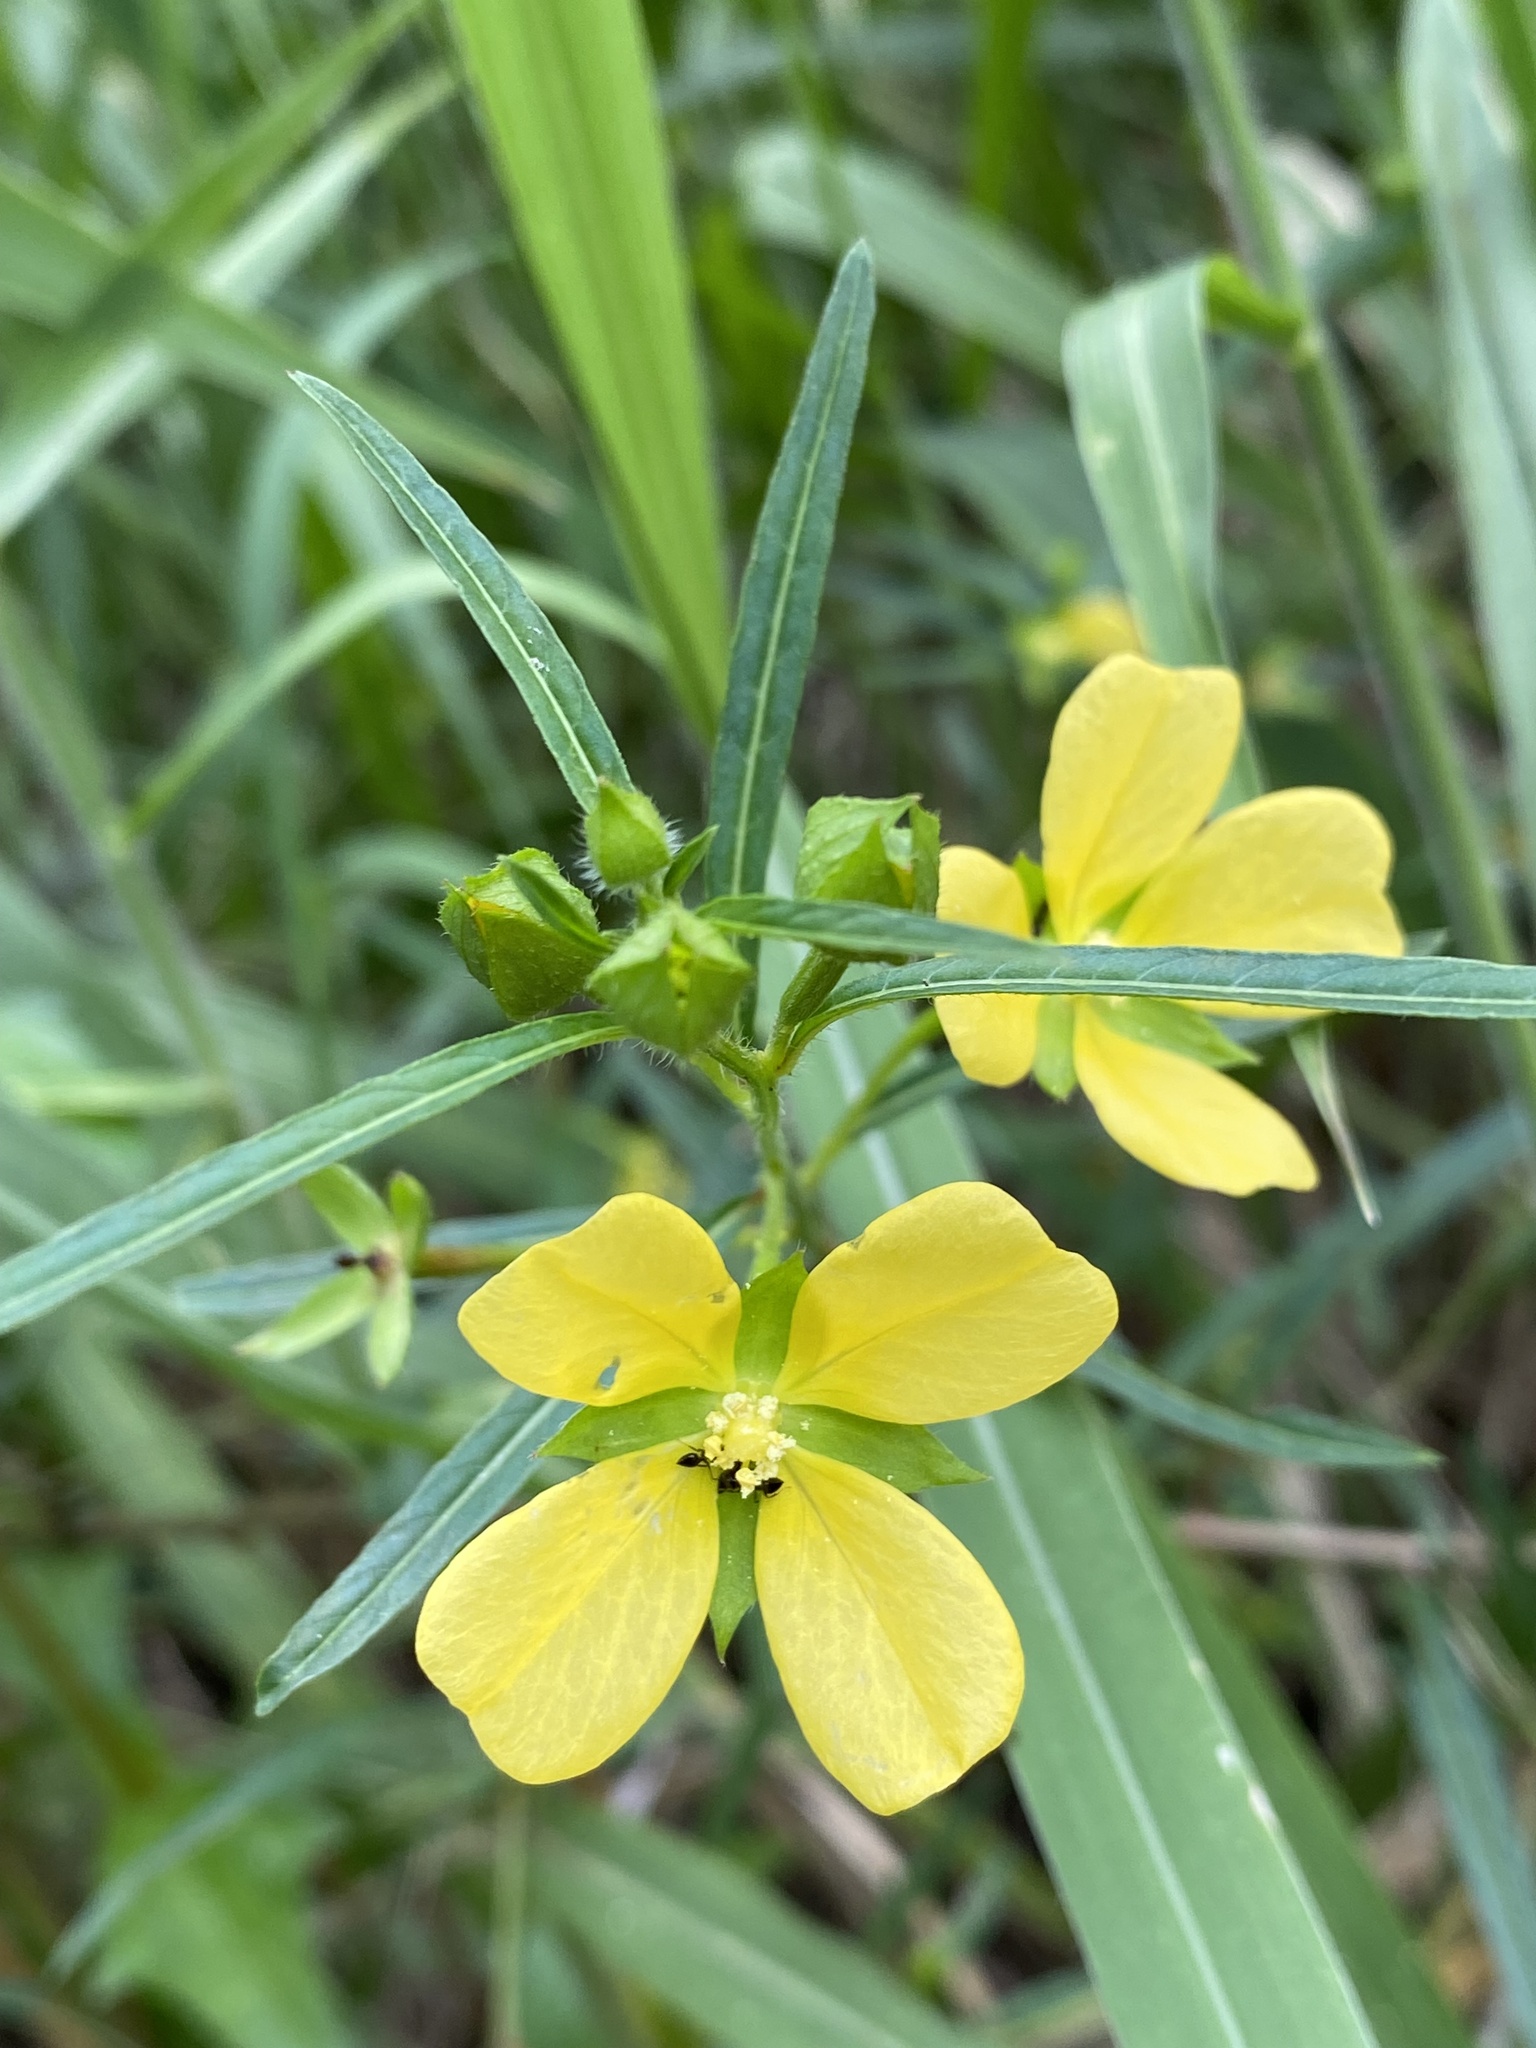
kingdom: Plantae
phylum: Tracheophyta
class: Magnoliopsida
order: Myrtales
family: Onagraceae
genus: Ludwigia
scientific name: Ludwigia octovalvis
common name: Water-primrose
